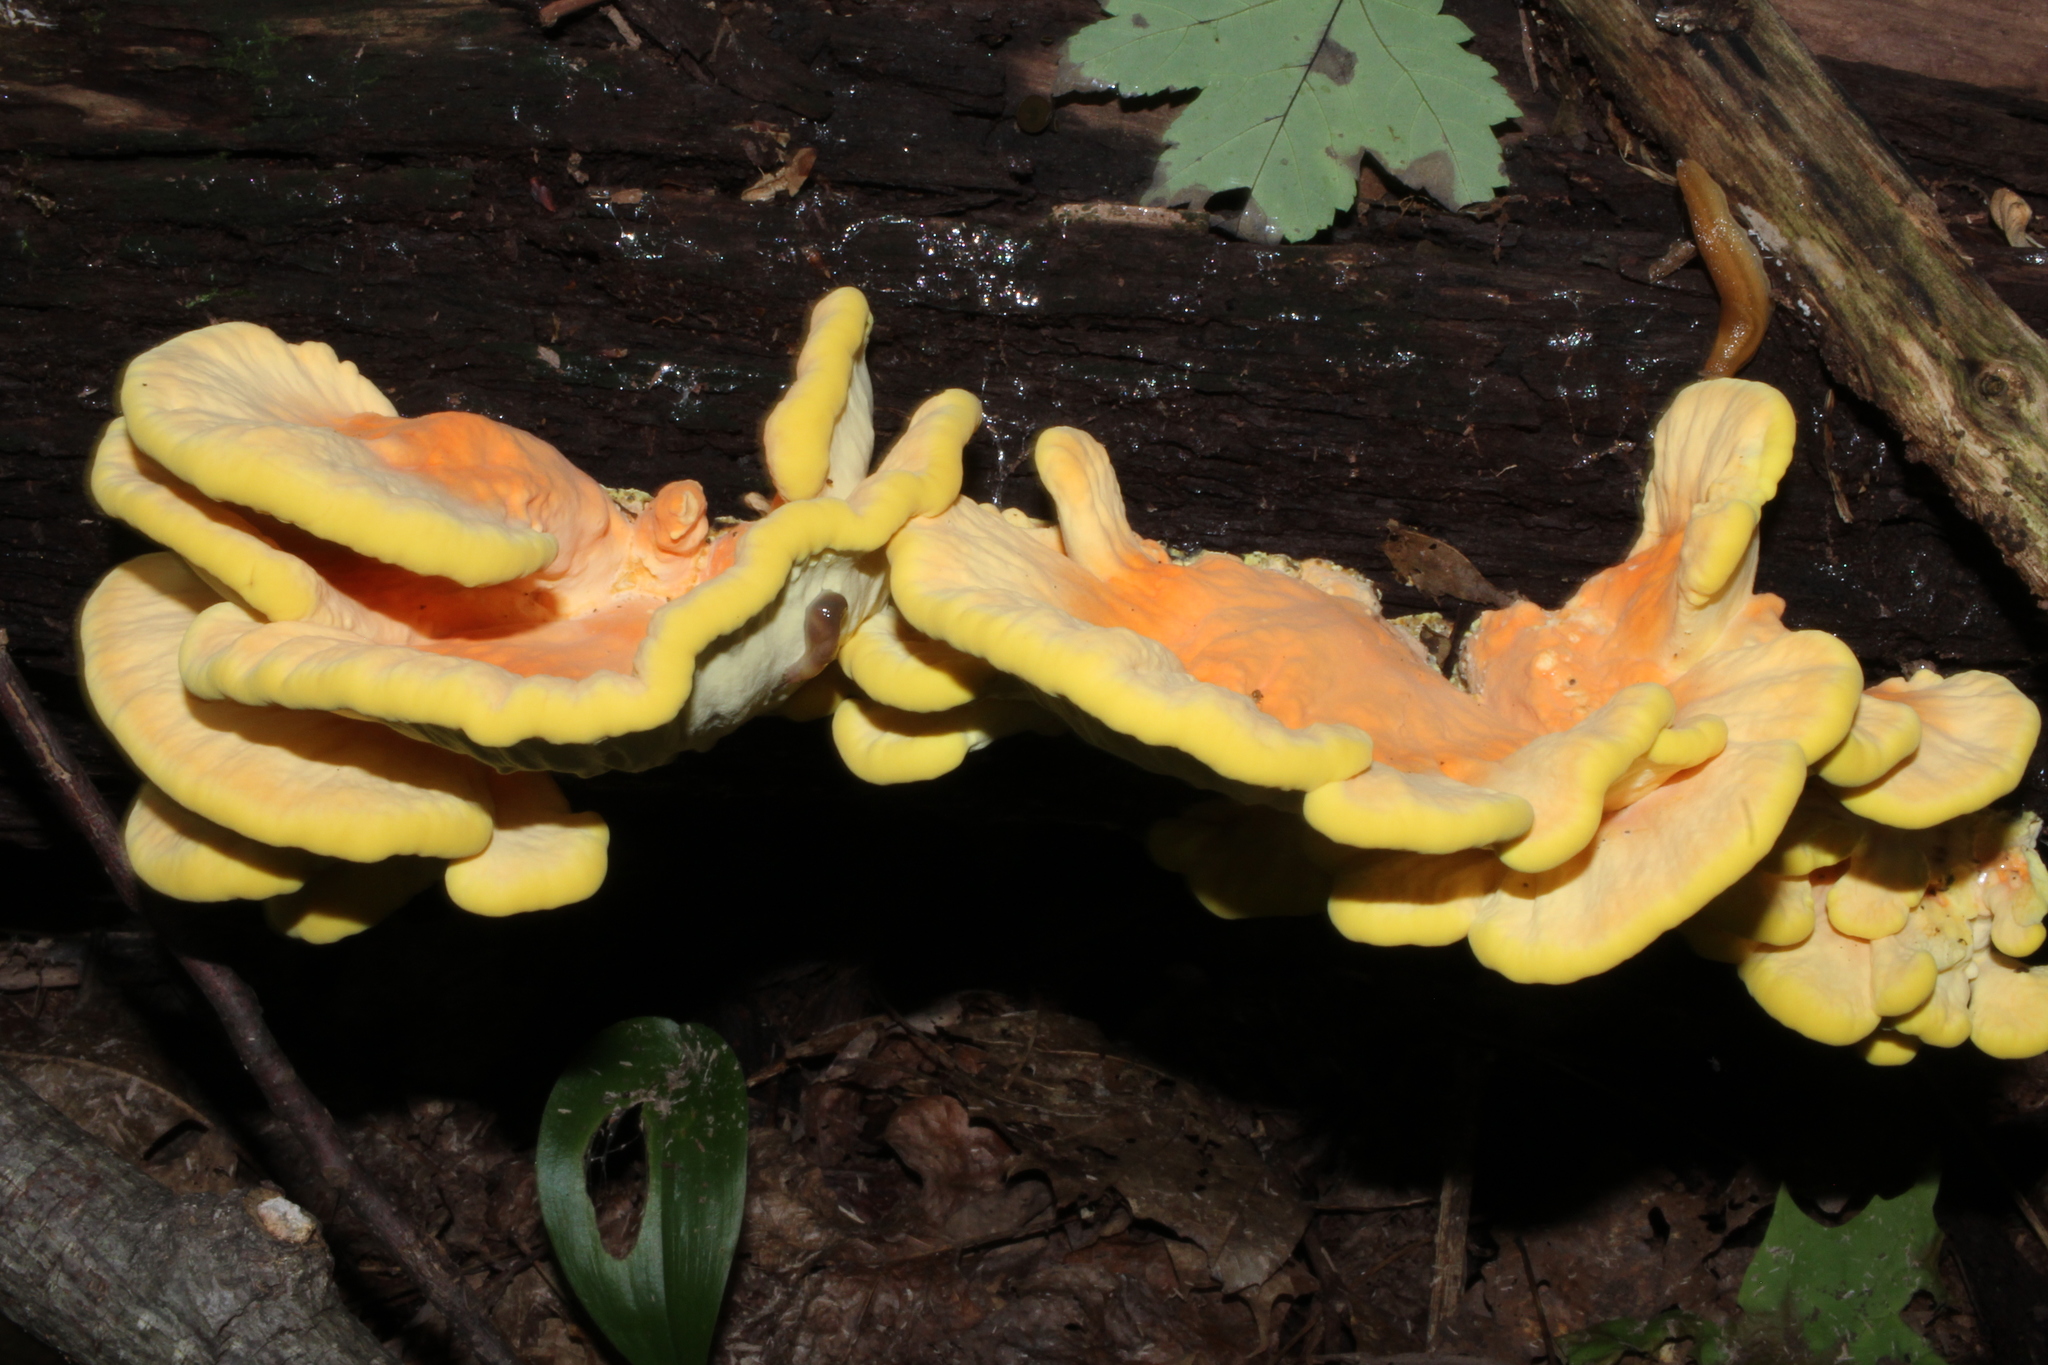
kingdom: Fungi
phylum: Basidiomycota
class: Agaricomycetes
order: Polyporales
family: Laetiporaceae
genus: Laetiporus
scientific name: Laetiporus sulphureus
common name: Chicken of the woods
